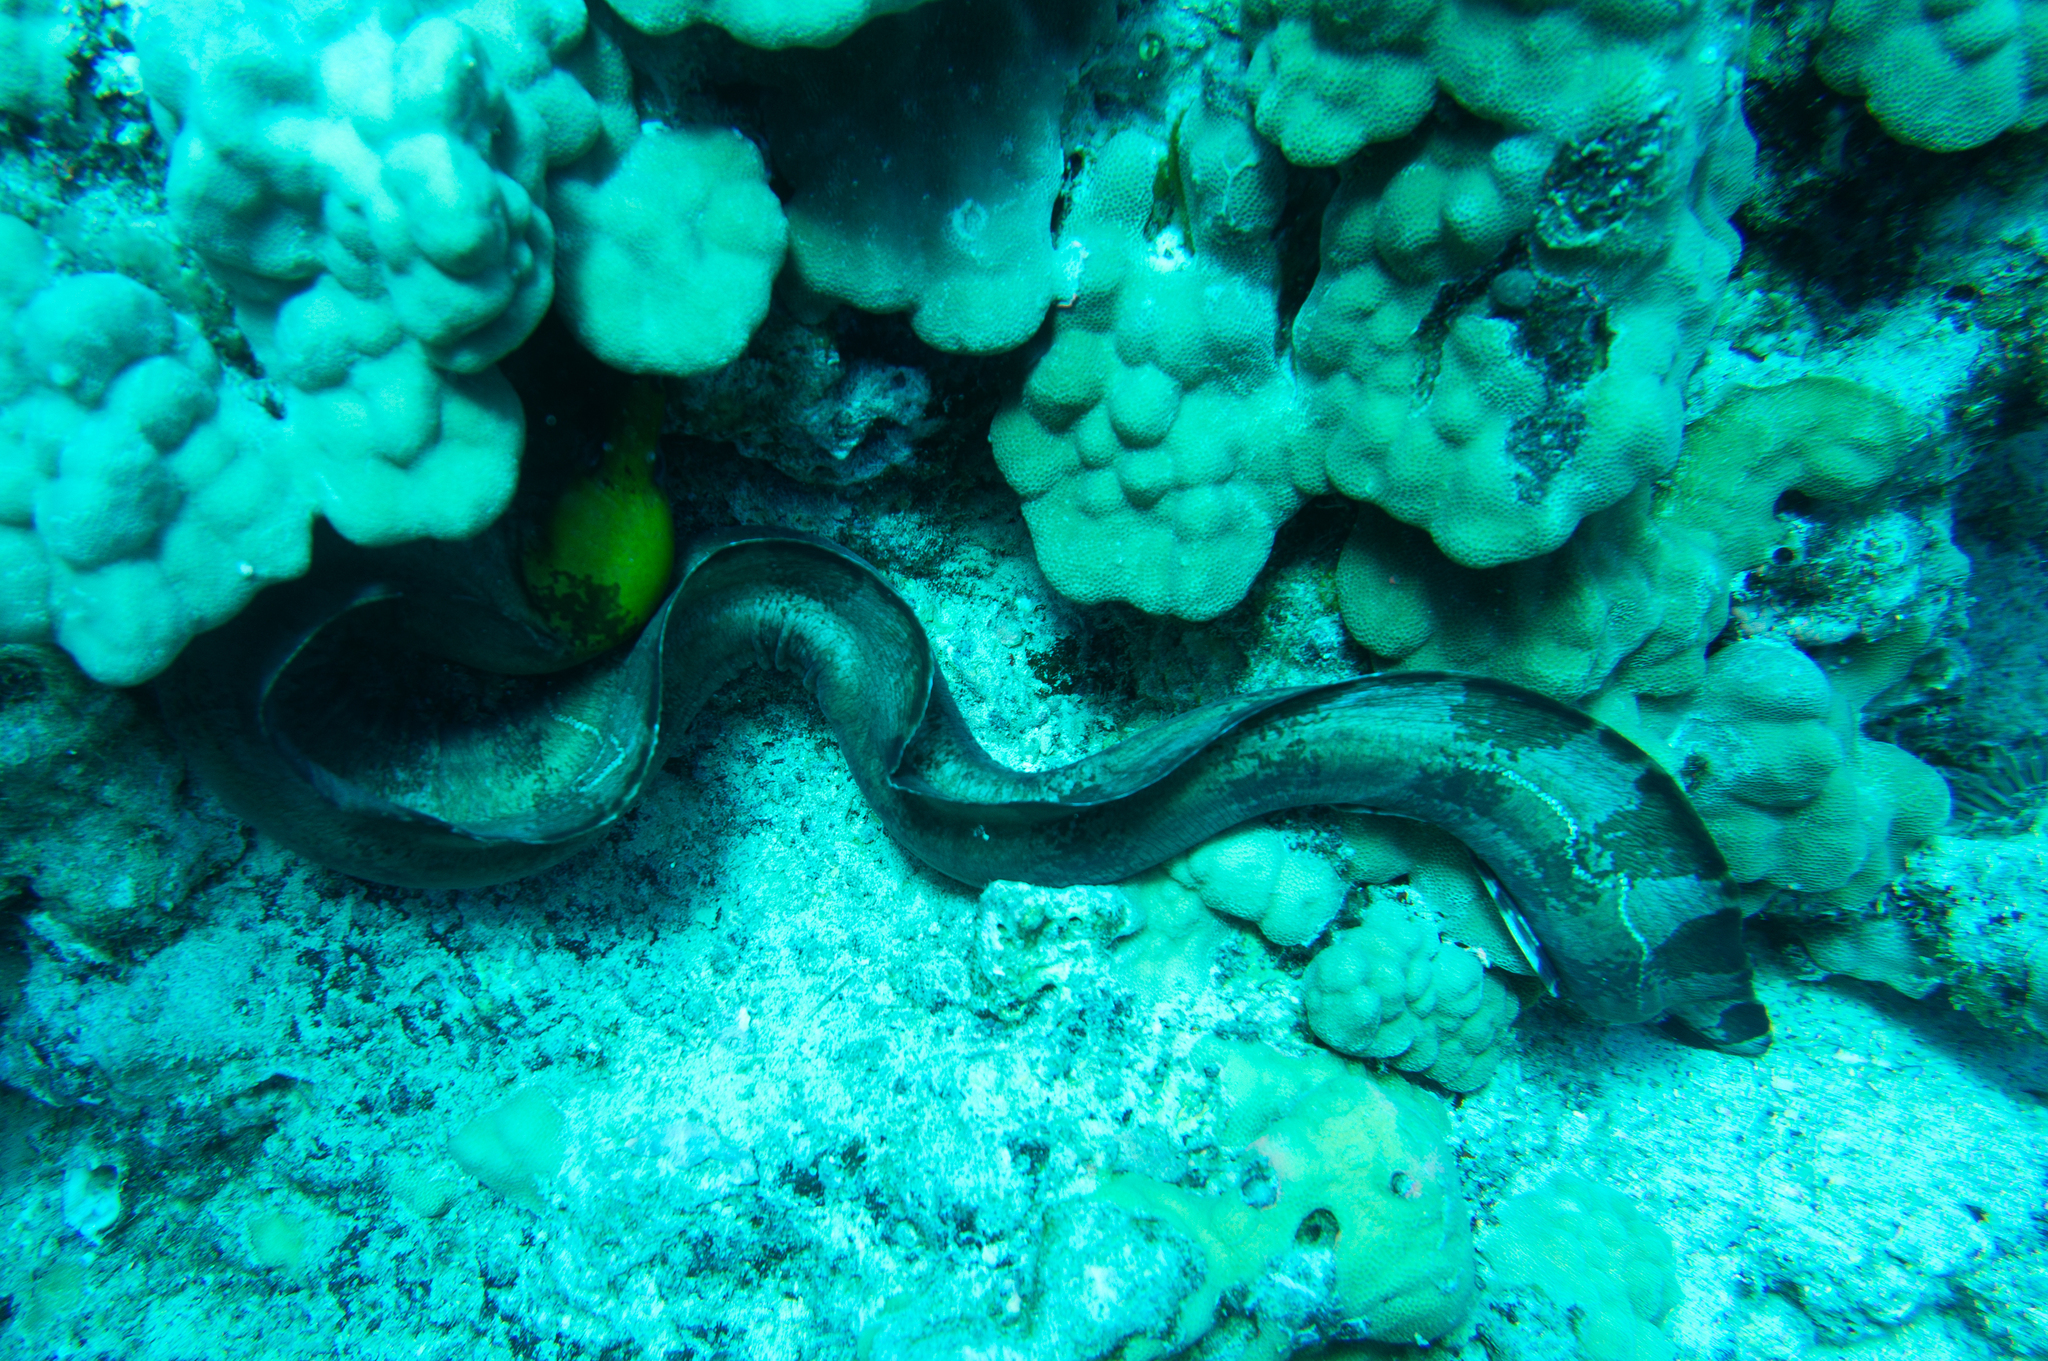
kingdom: Animalia
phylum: Chordata
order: Anguilliformes
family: Muraenidae
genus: Gymnothorax
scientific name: Gymnothorax rueppelliae
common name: Banded moray
